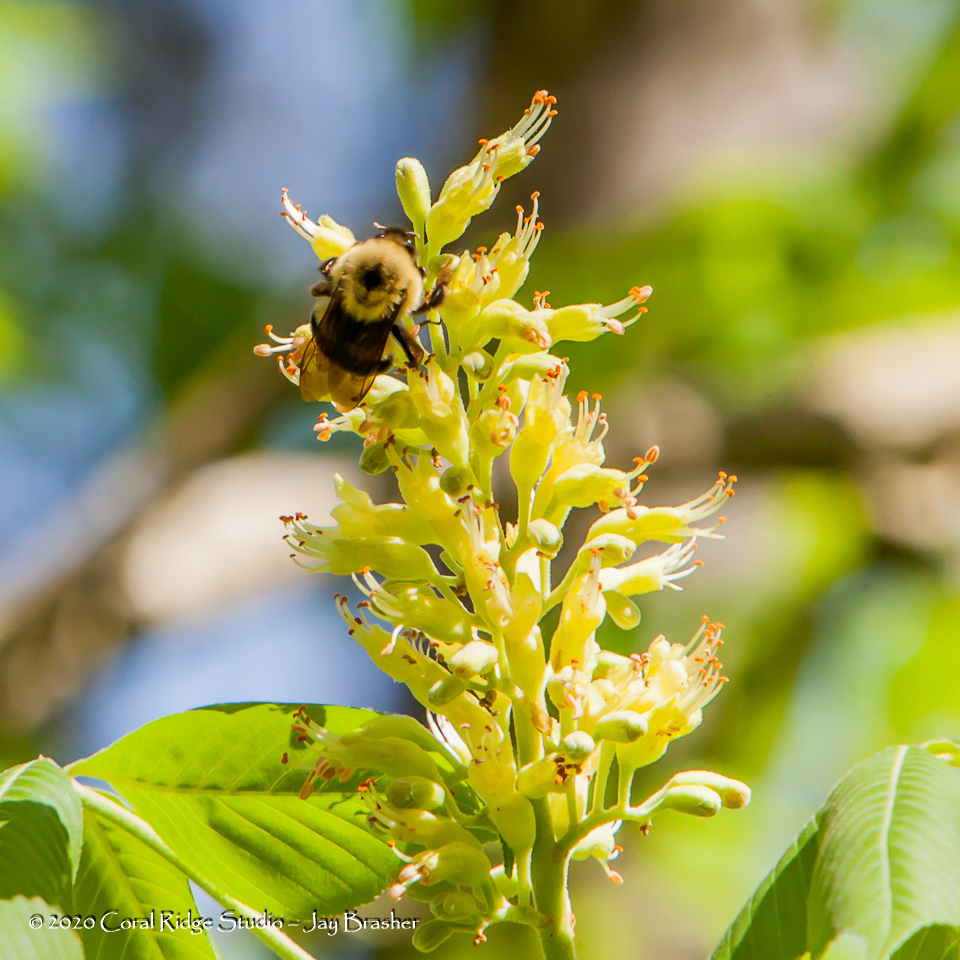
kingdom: Animalia
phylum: Arthropoda
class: Insecta
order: Hymenoptera
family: Apidae
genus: Bombus
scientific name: Bombus bimaculatus
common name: Two-spotted bumble bee
